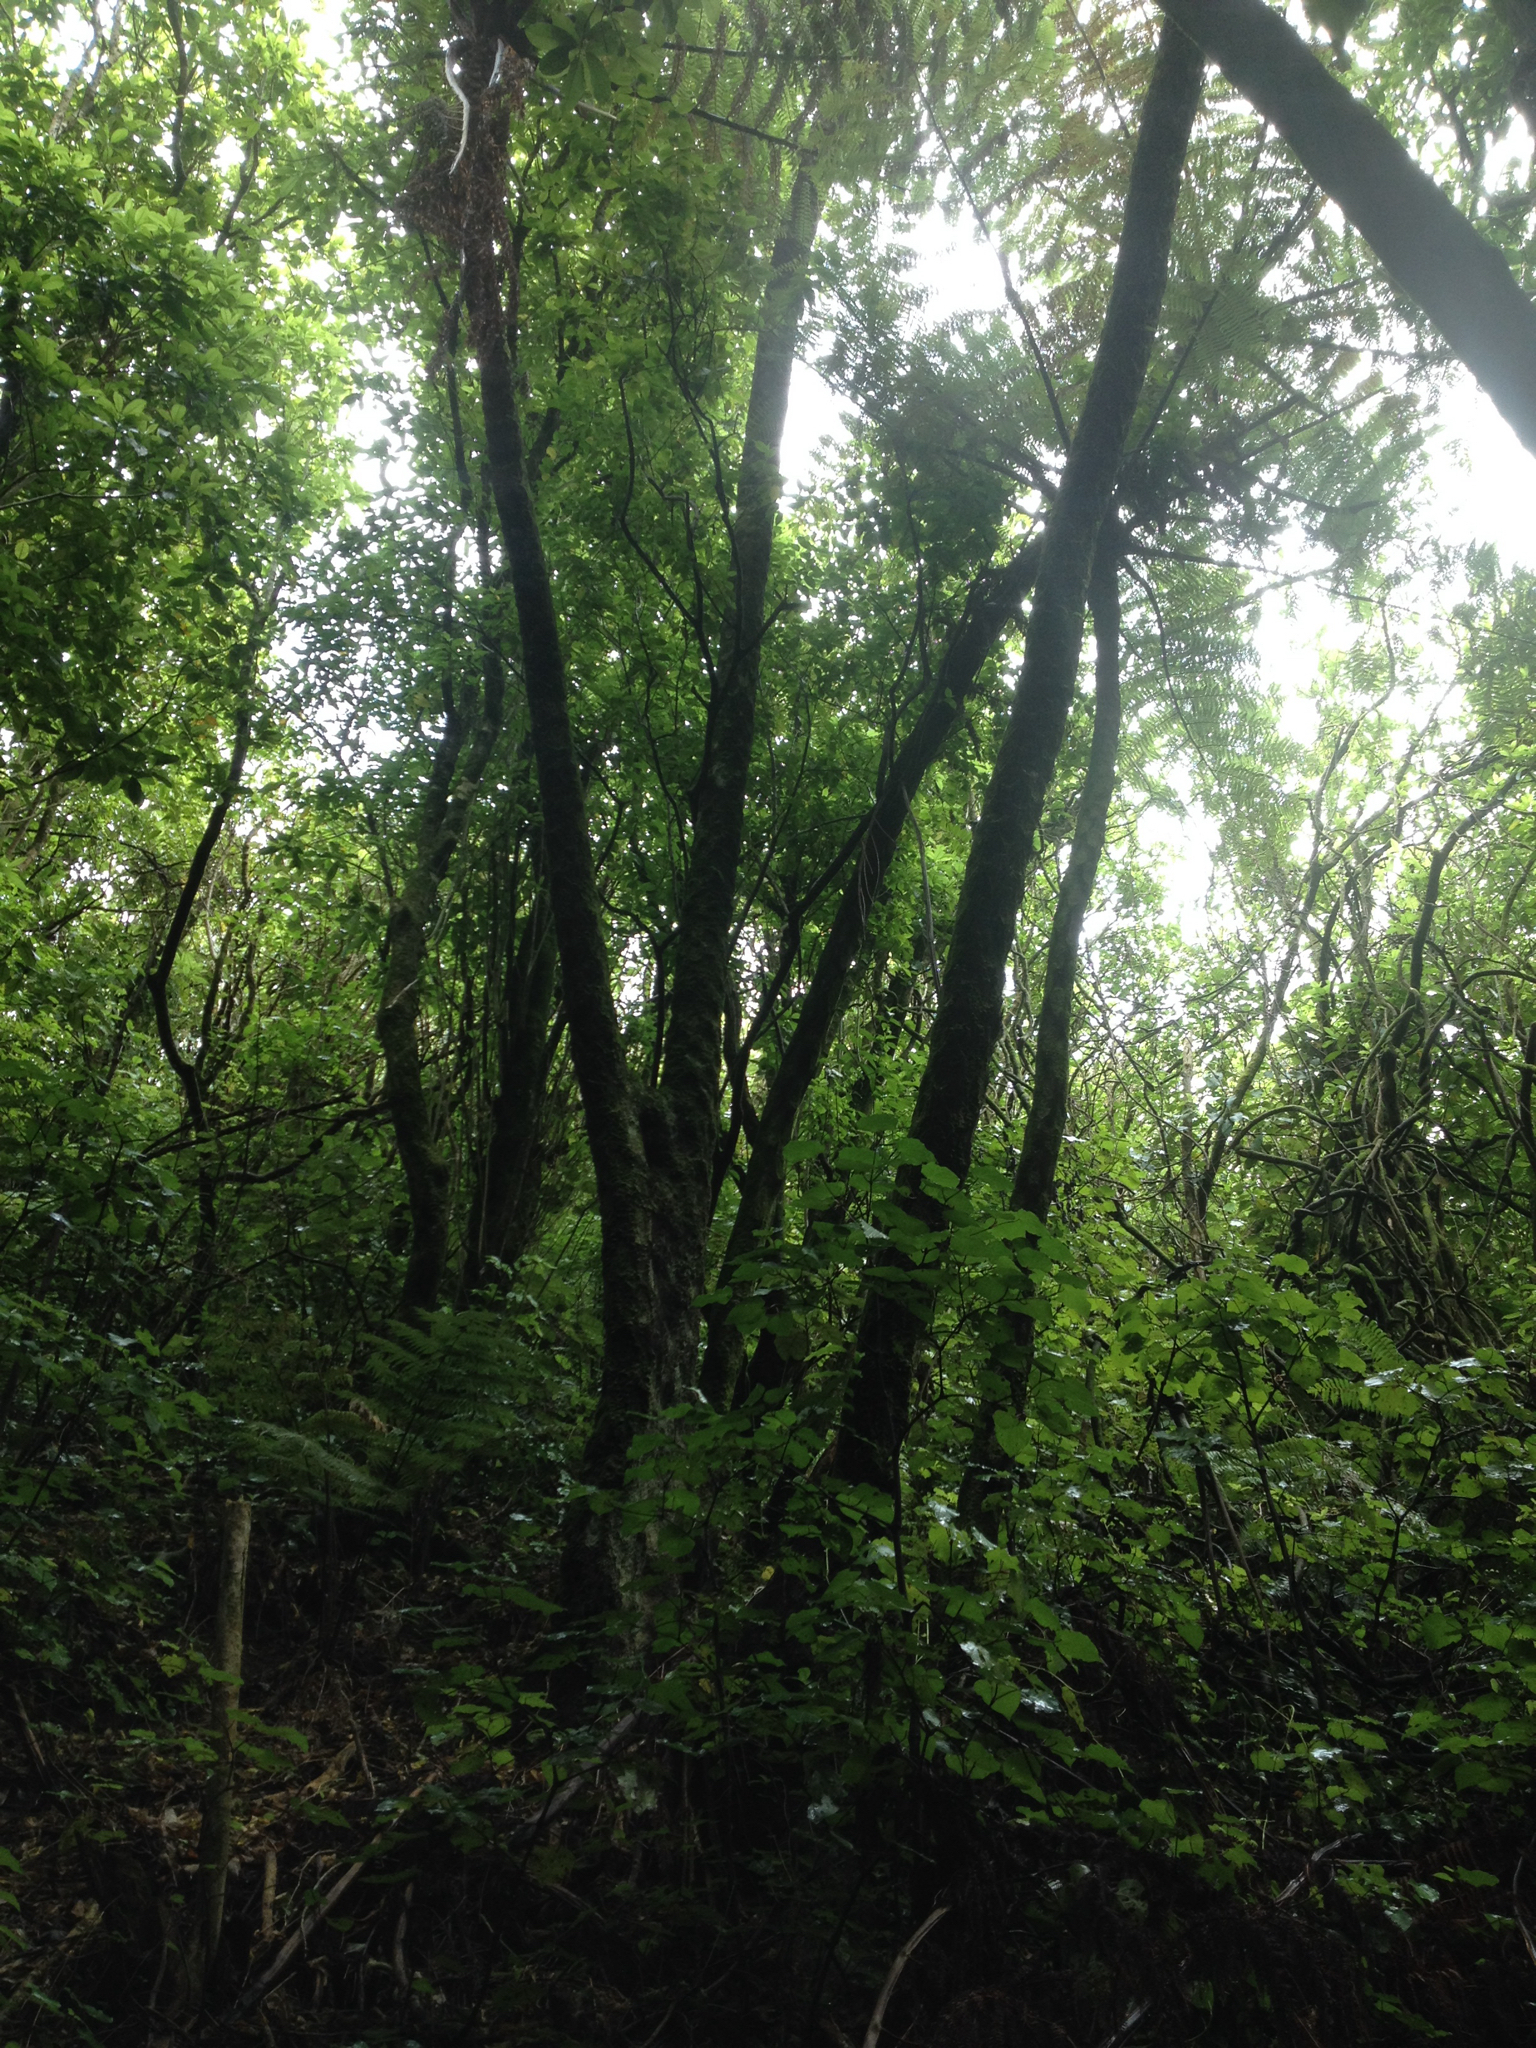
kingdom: Plantae
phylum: Tracheophyta
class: Polypodiopsida
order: Cyatheales
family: Cyatheaceae
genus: Sphaeropteris
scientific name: Sphaeropteris medullaris
